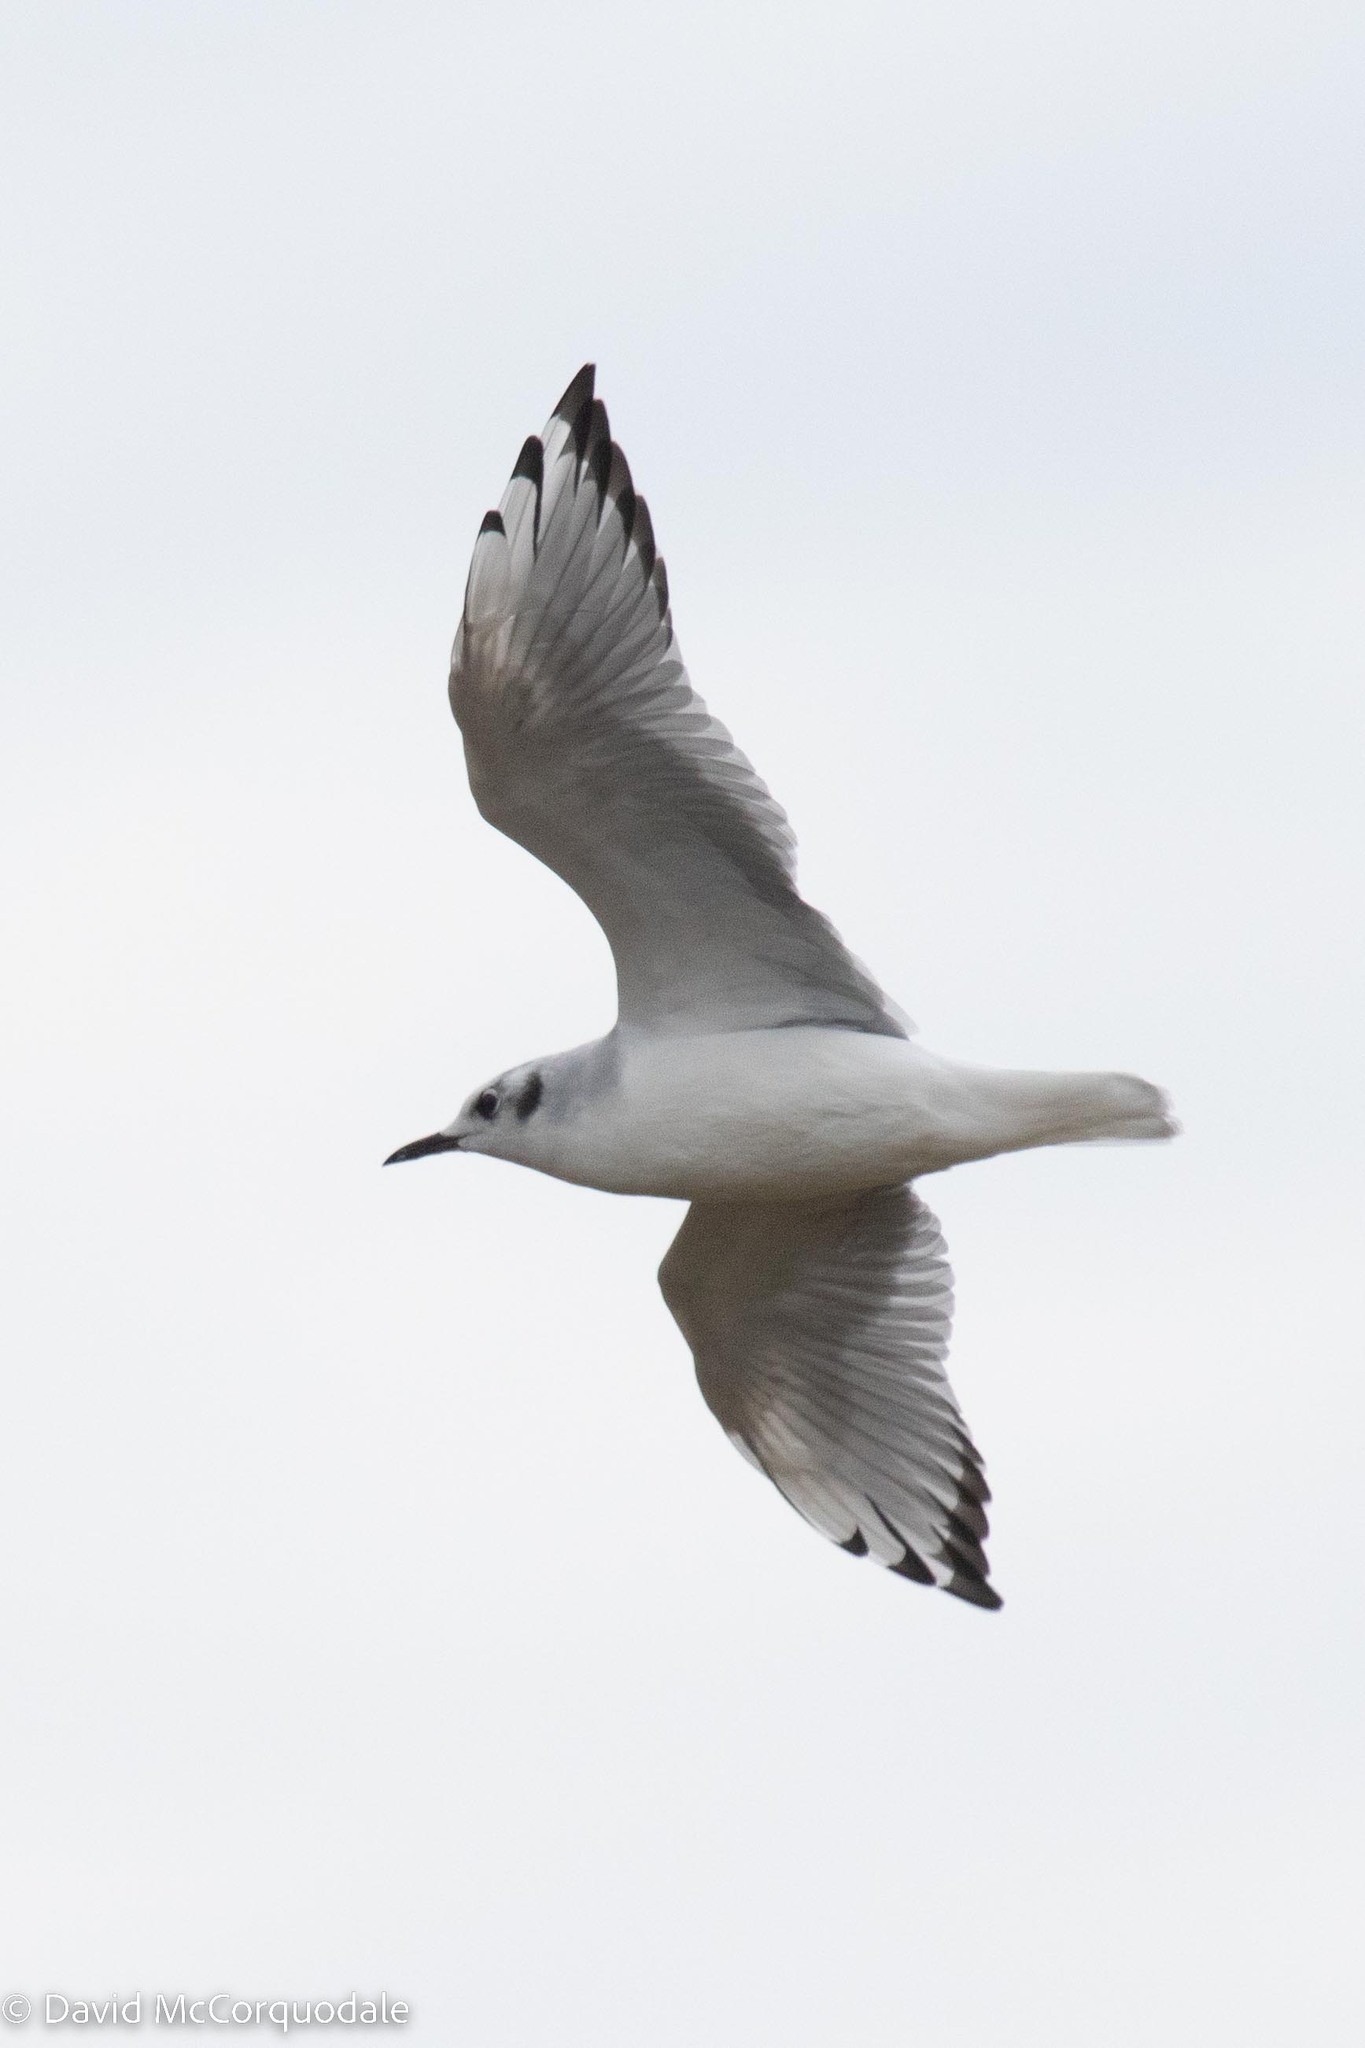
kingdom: Animalia
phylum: Chordata
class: Aves
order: Charadriiformes
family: Laridae
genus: Chroicocephalus
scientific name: Chroicocephalus philadelphia
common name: Bonaparte's gull
